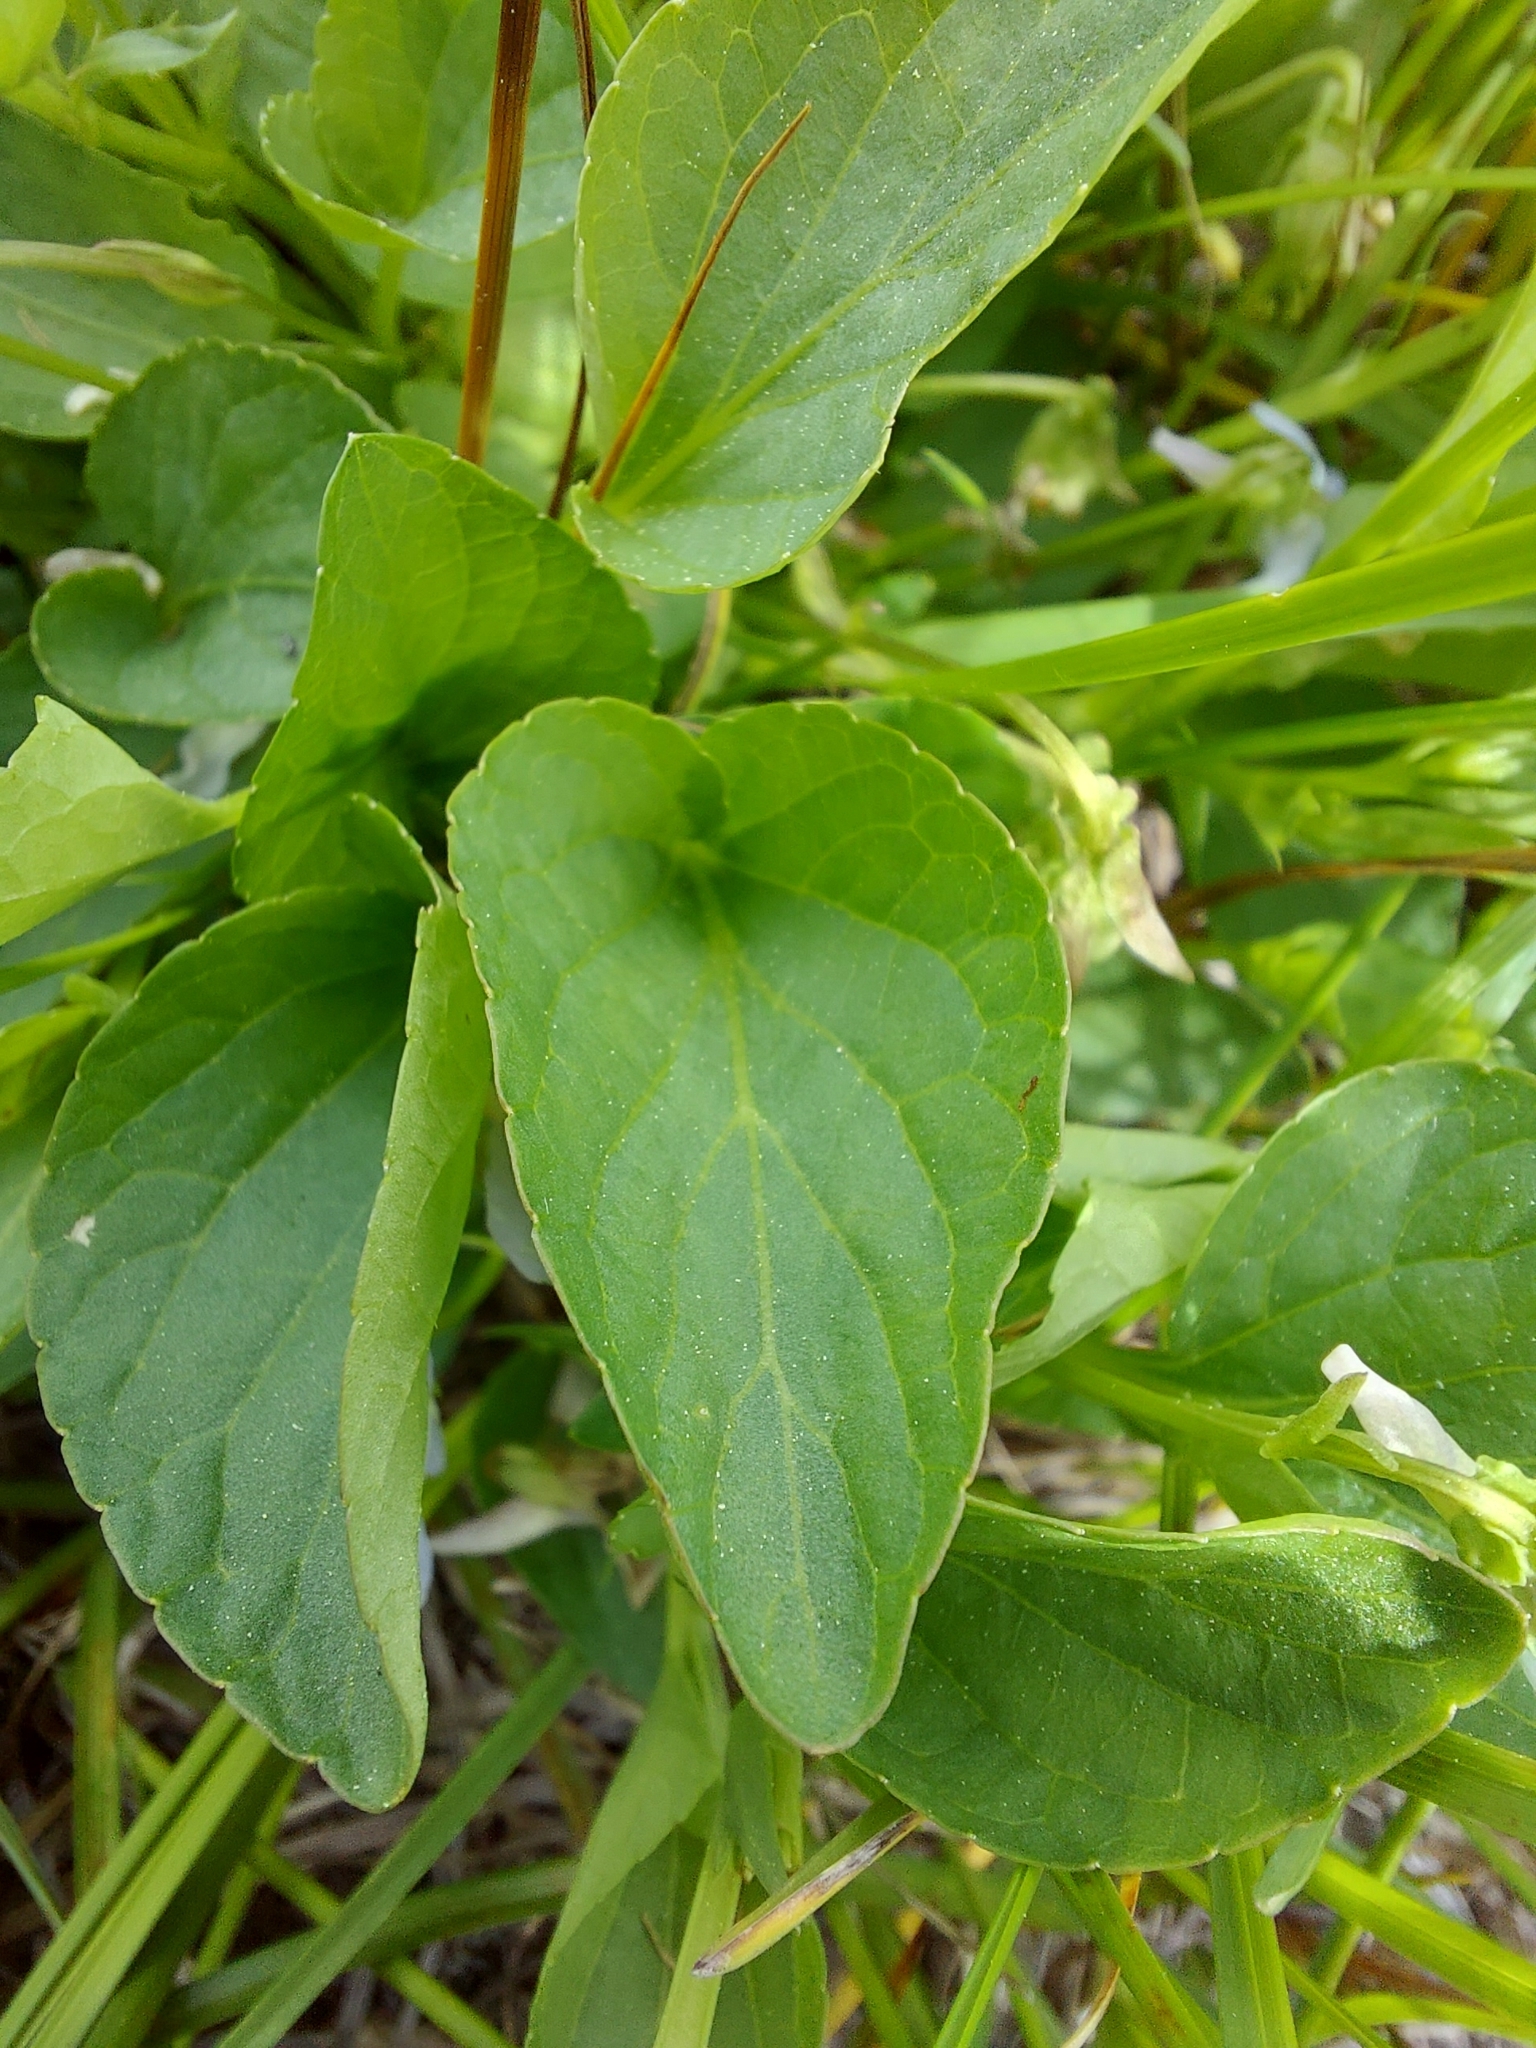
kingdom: Plantae
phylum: Tracheophyta
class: Magnoliopsida
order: Malpighiales
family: Violaceae
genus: Viola
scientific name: Viola adunca
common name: Sand violet
